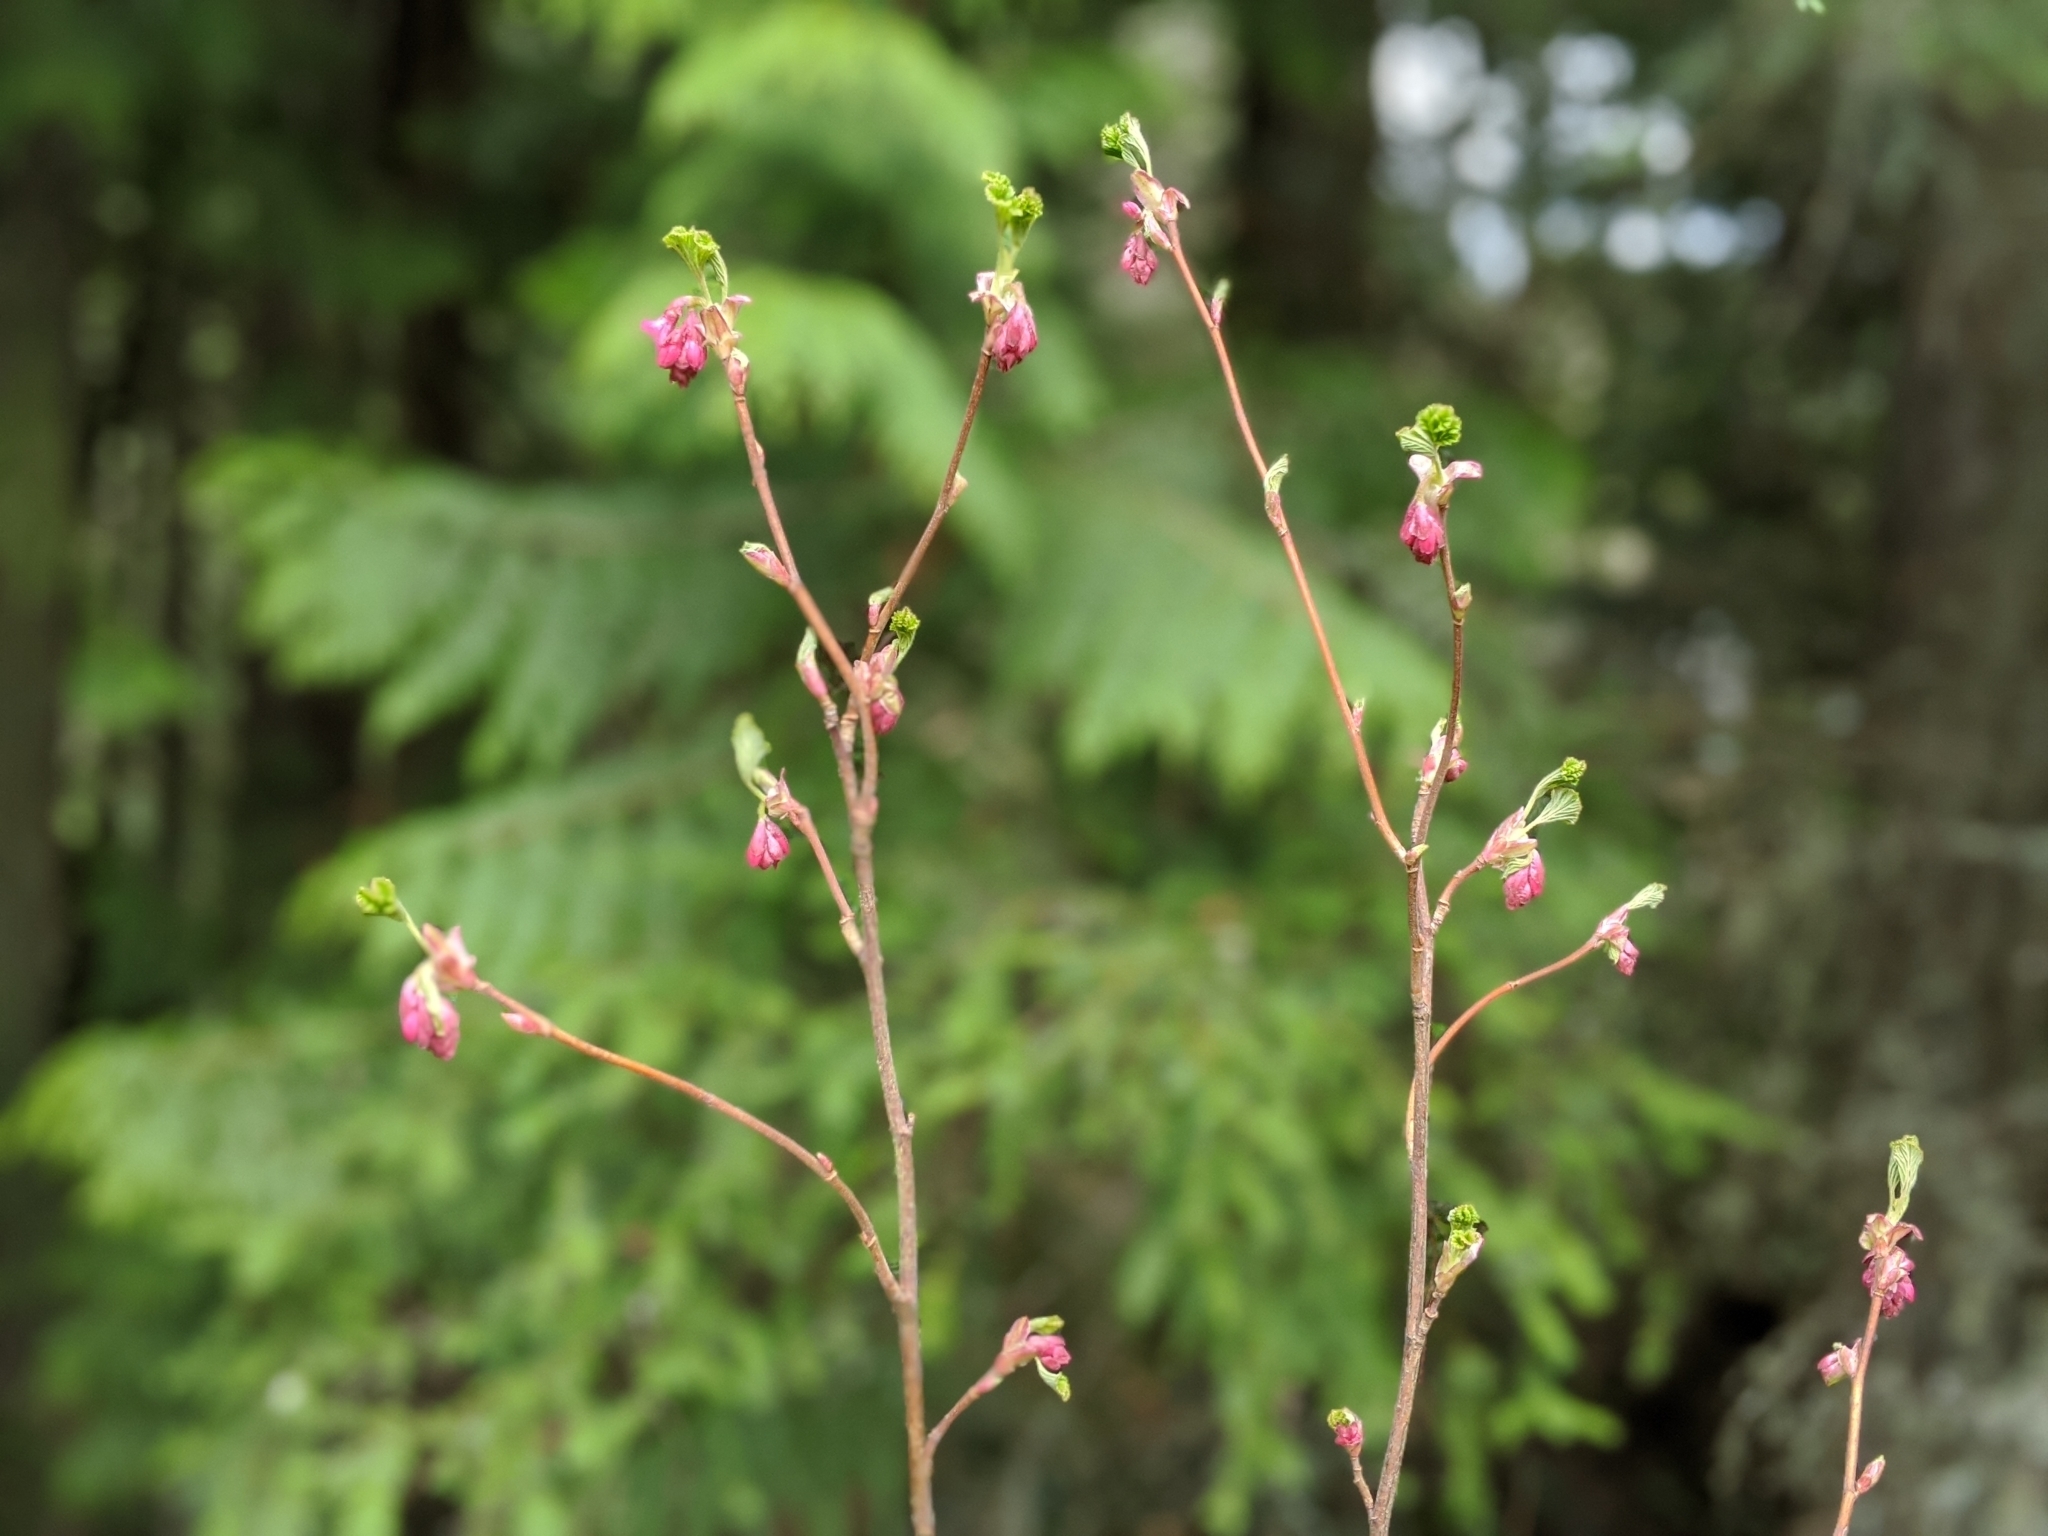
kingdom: Plantae
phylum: Tracheophyta
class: Magnoliopsida
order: Saxifragales
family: Grossulariaceae
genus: Ribes
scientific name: Ribes sanguineum
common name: Flowering currant
